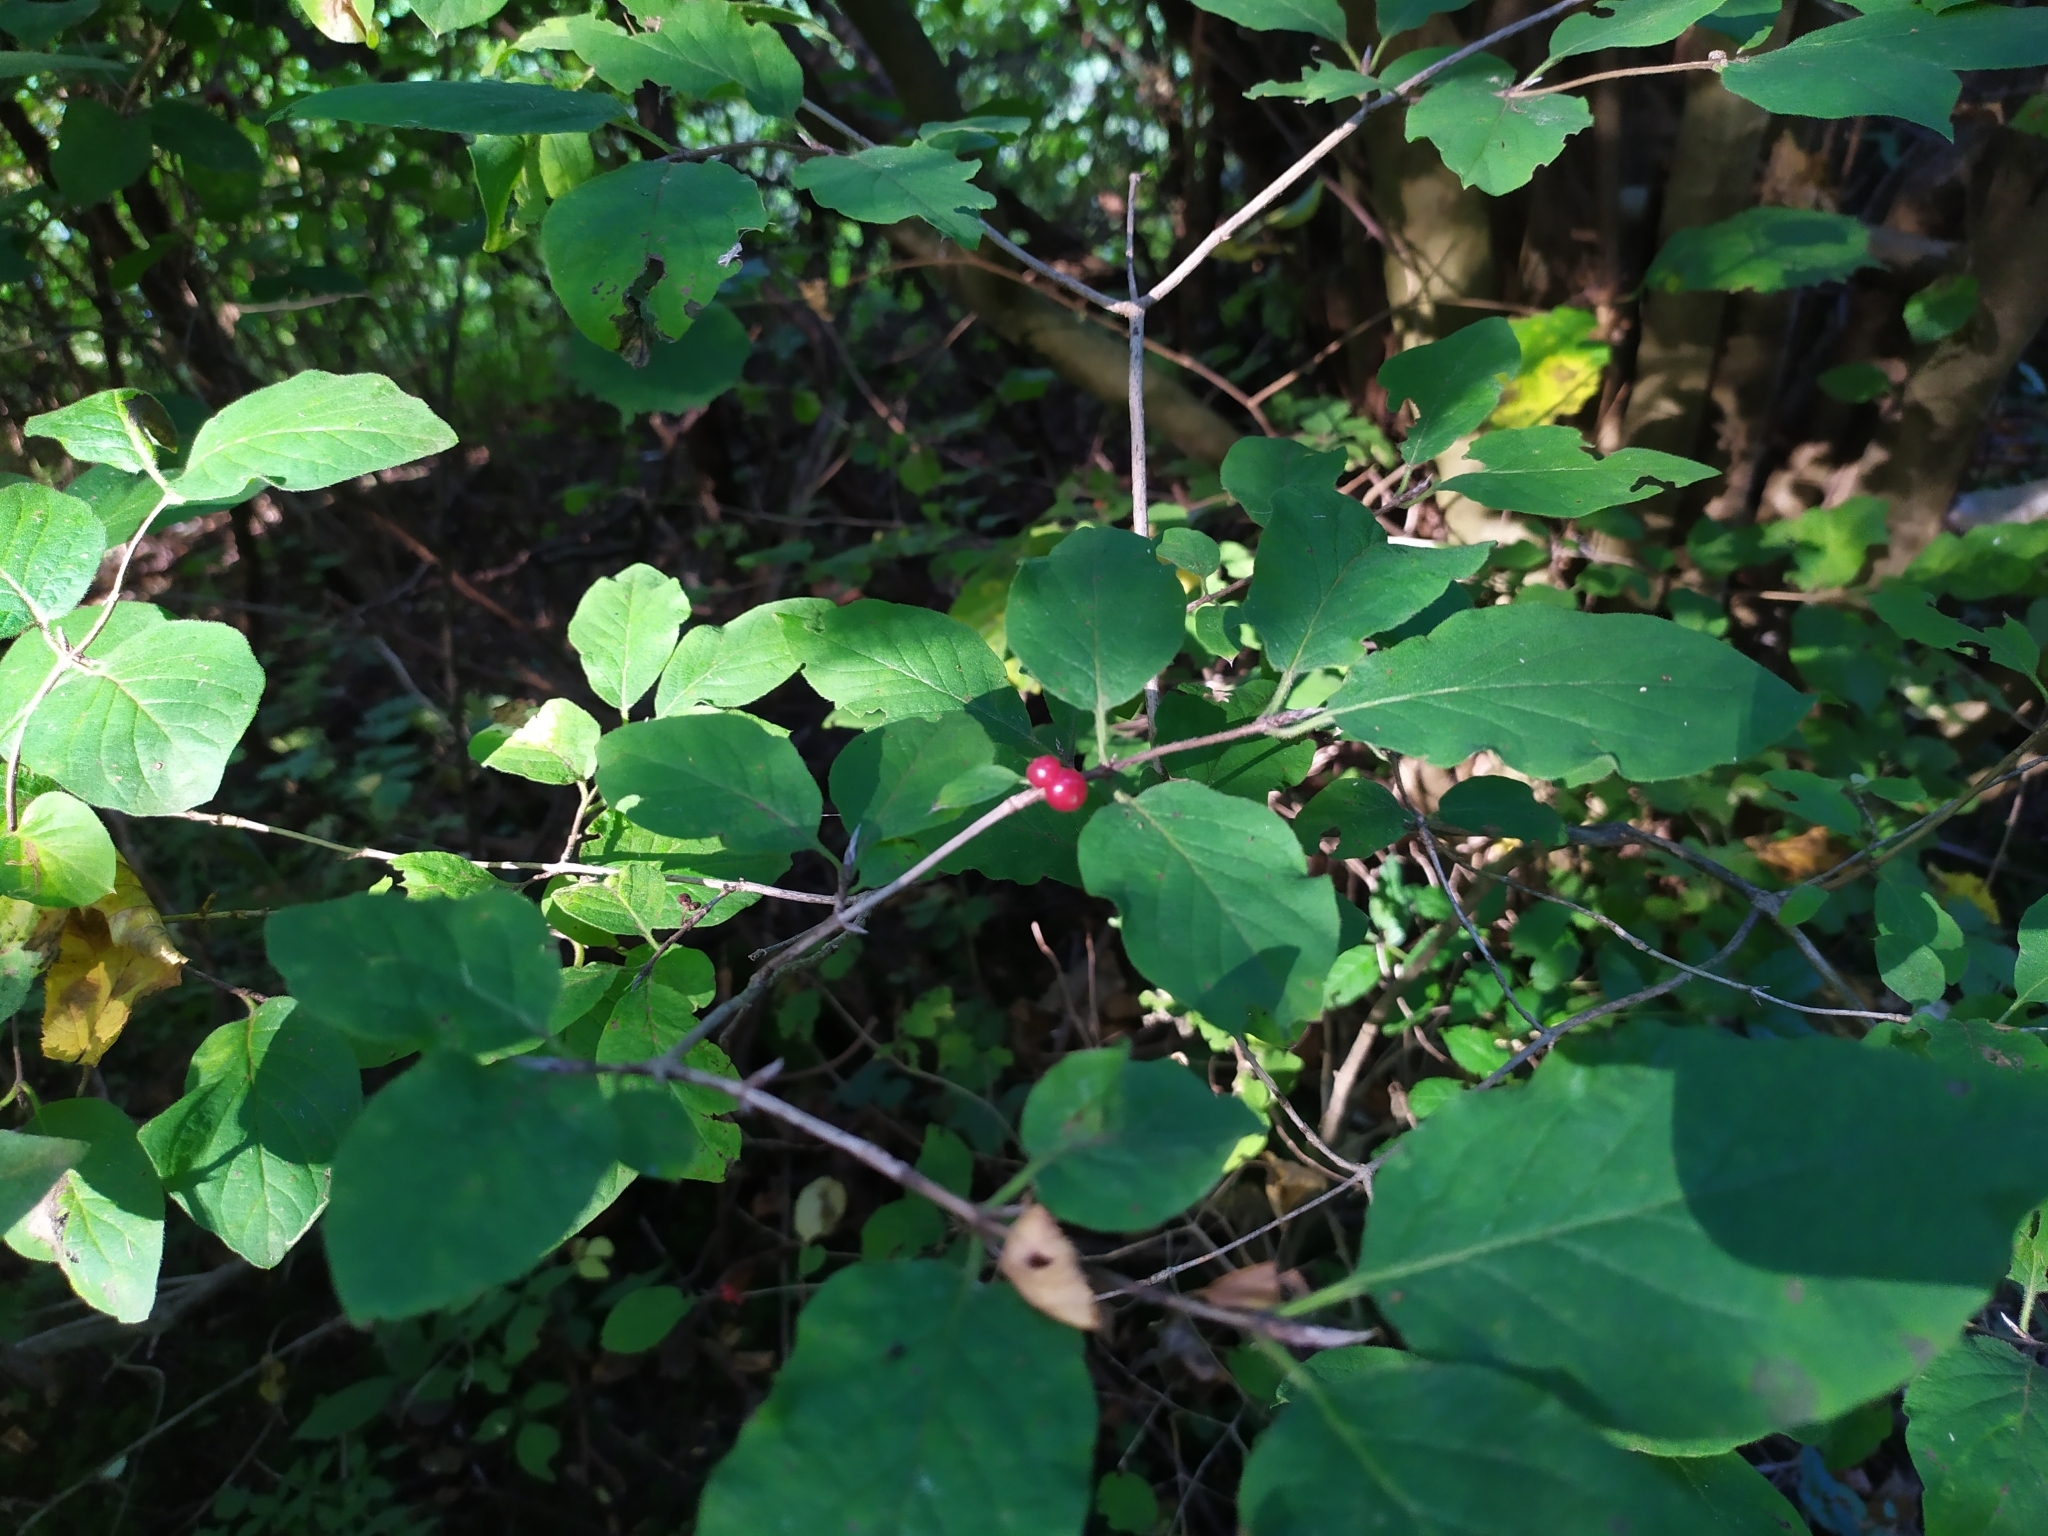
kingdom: Plantae
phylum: Tracheophyta
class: Magnoliopsida
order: Dipsacales
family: Caprifoliaceae
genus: Lonicera
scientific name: Lonicera xylosteum
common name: Fly honeysuckle
